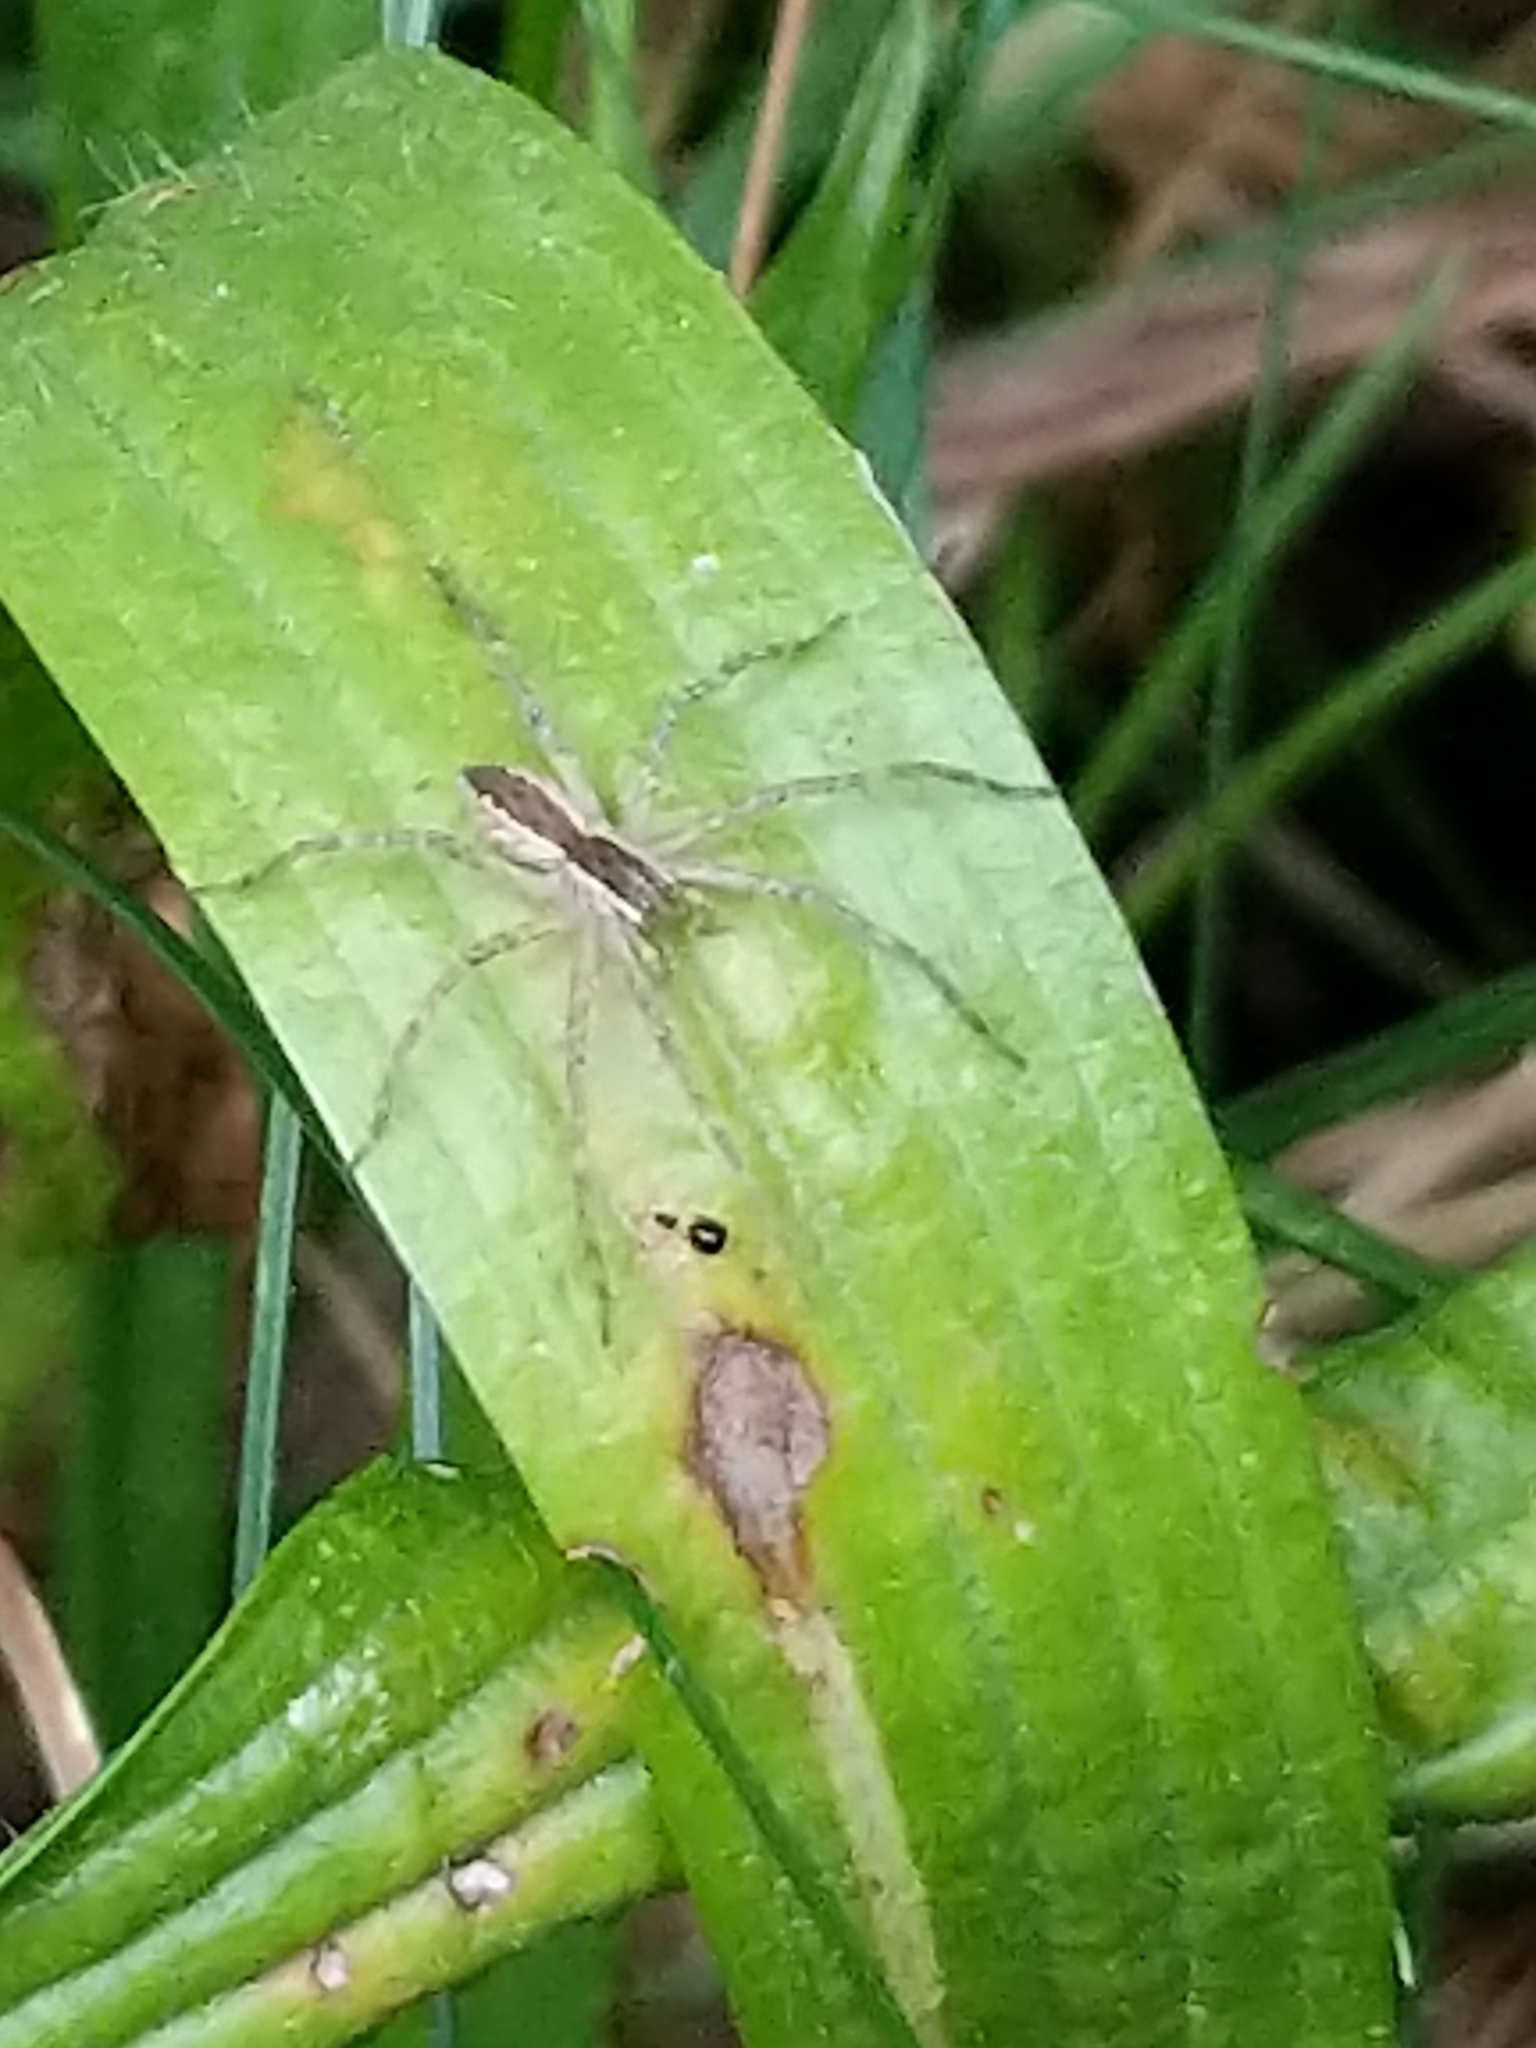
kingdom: Animalia
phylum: Arthropoda
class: Arachnida
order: Araneae
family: Pisauridae
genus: Pisaurina
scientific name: Pisaurina mira
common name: American nursery web spider
